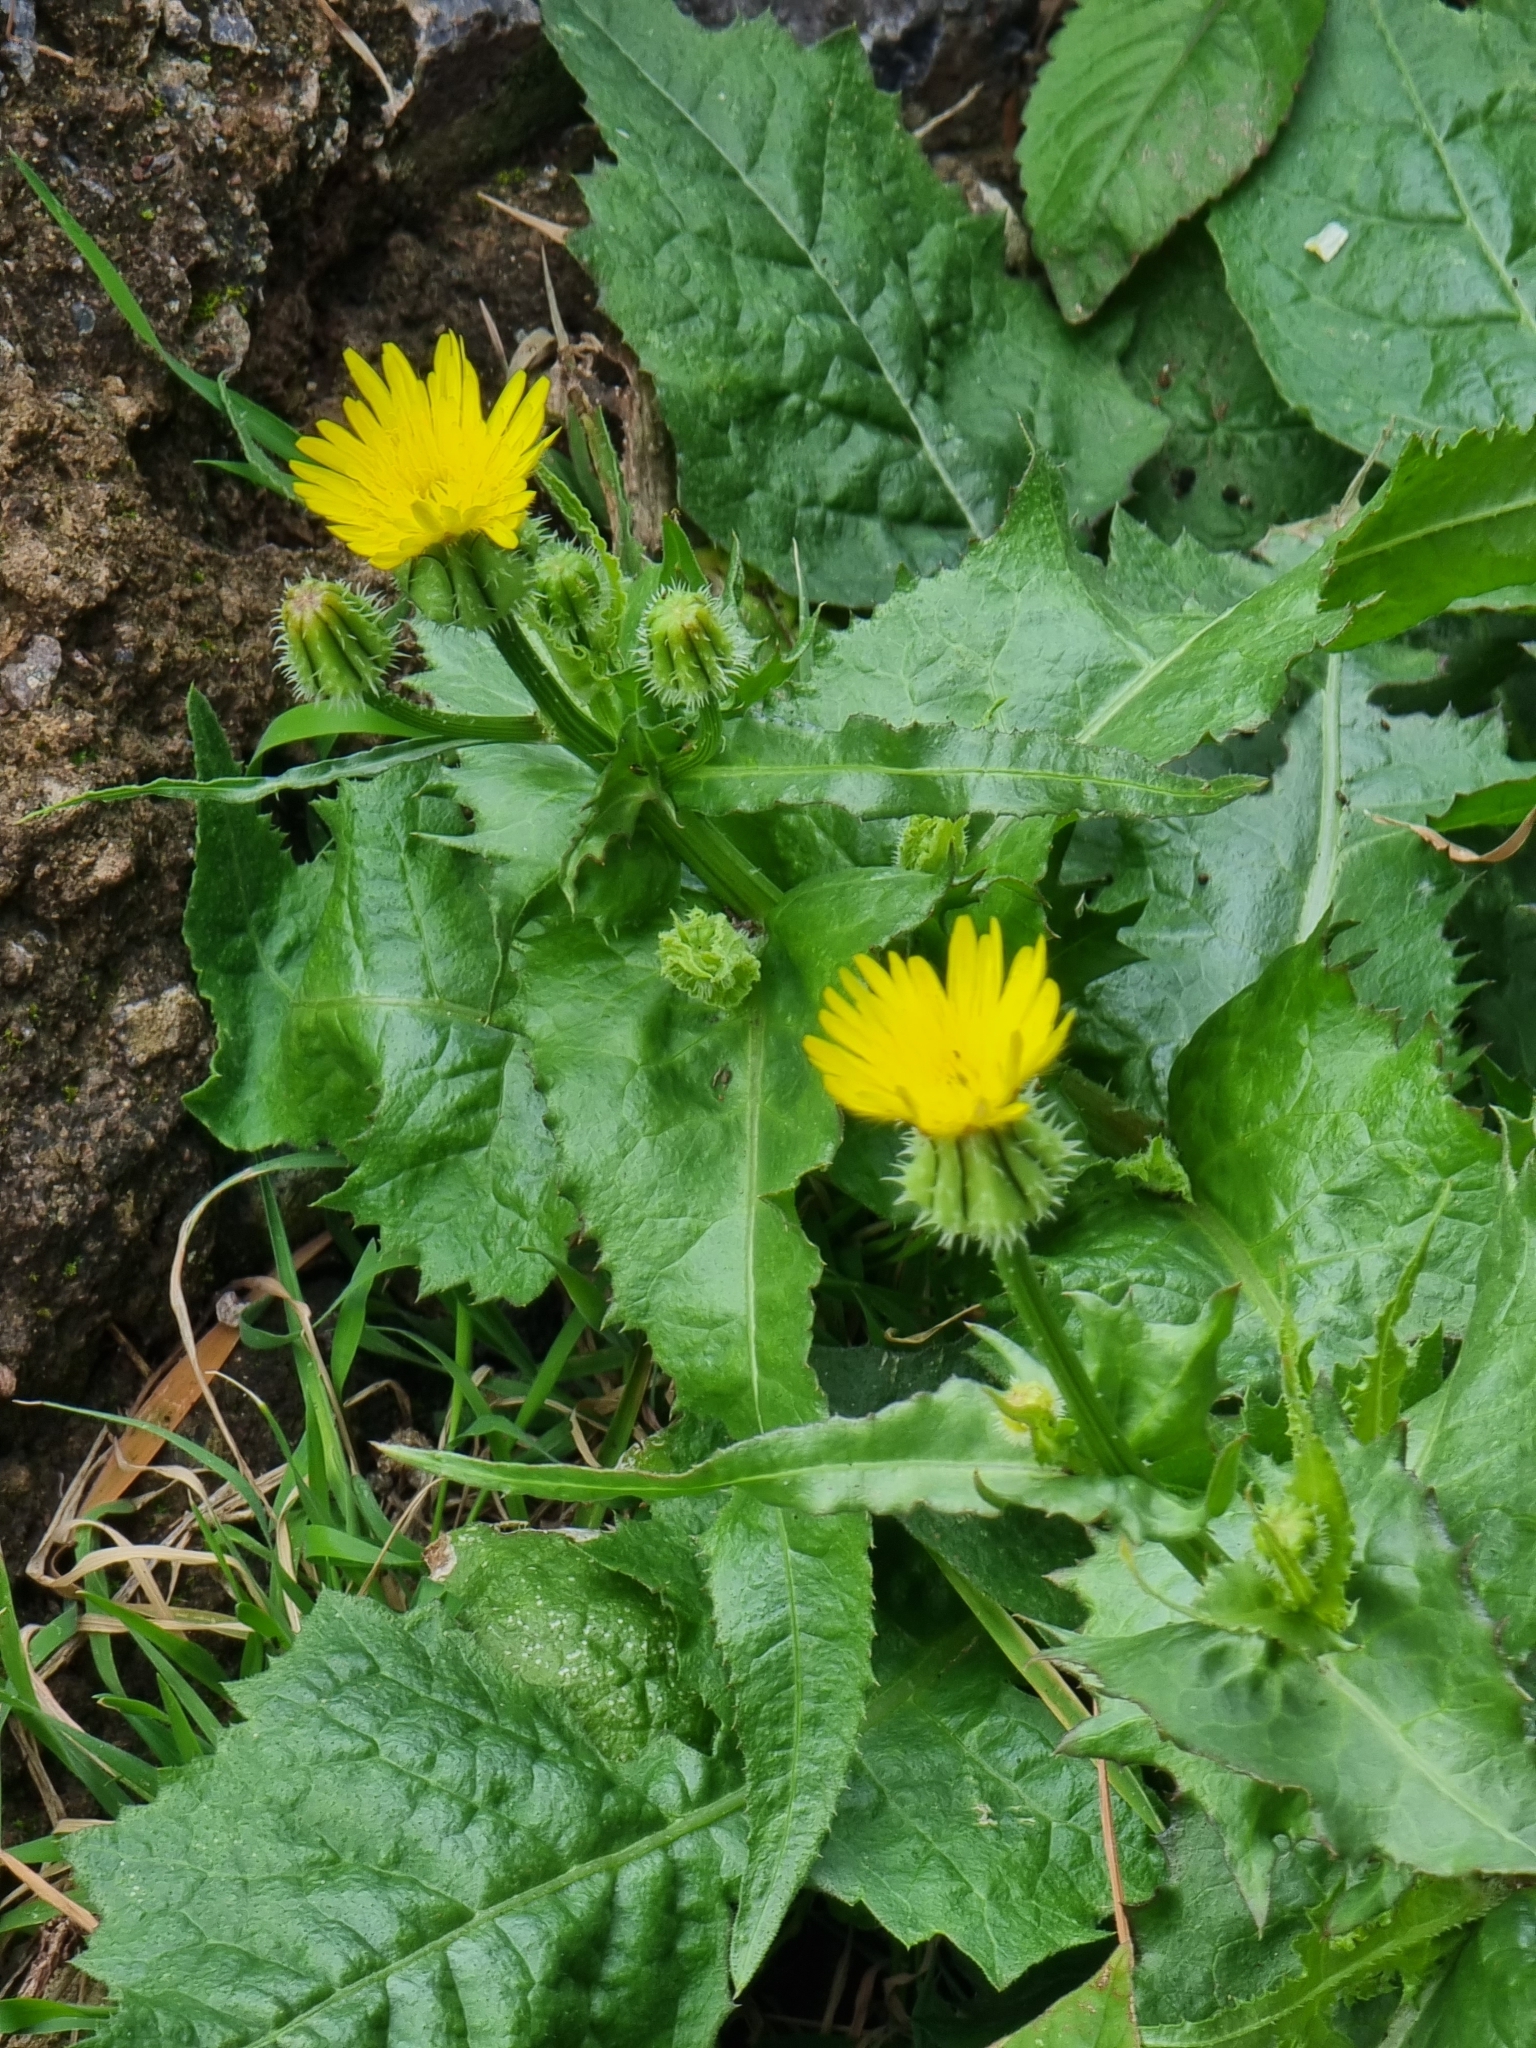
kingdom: Plantae
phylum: Tracheophyta
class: Magnoliopsida
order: Asterales
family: Asteraceae
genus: Urospermum
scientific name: Urospermum picroides
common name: False hawkbit
